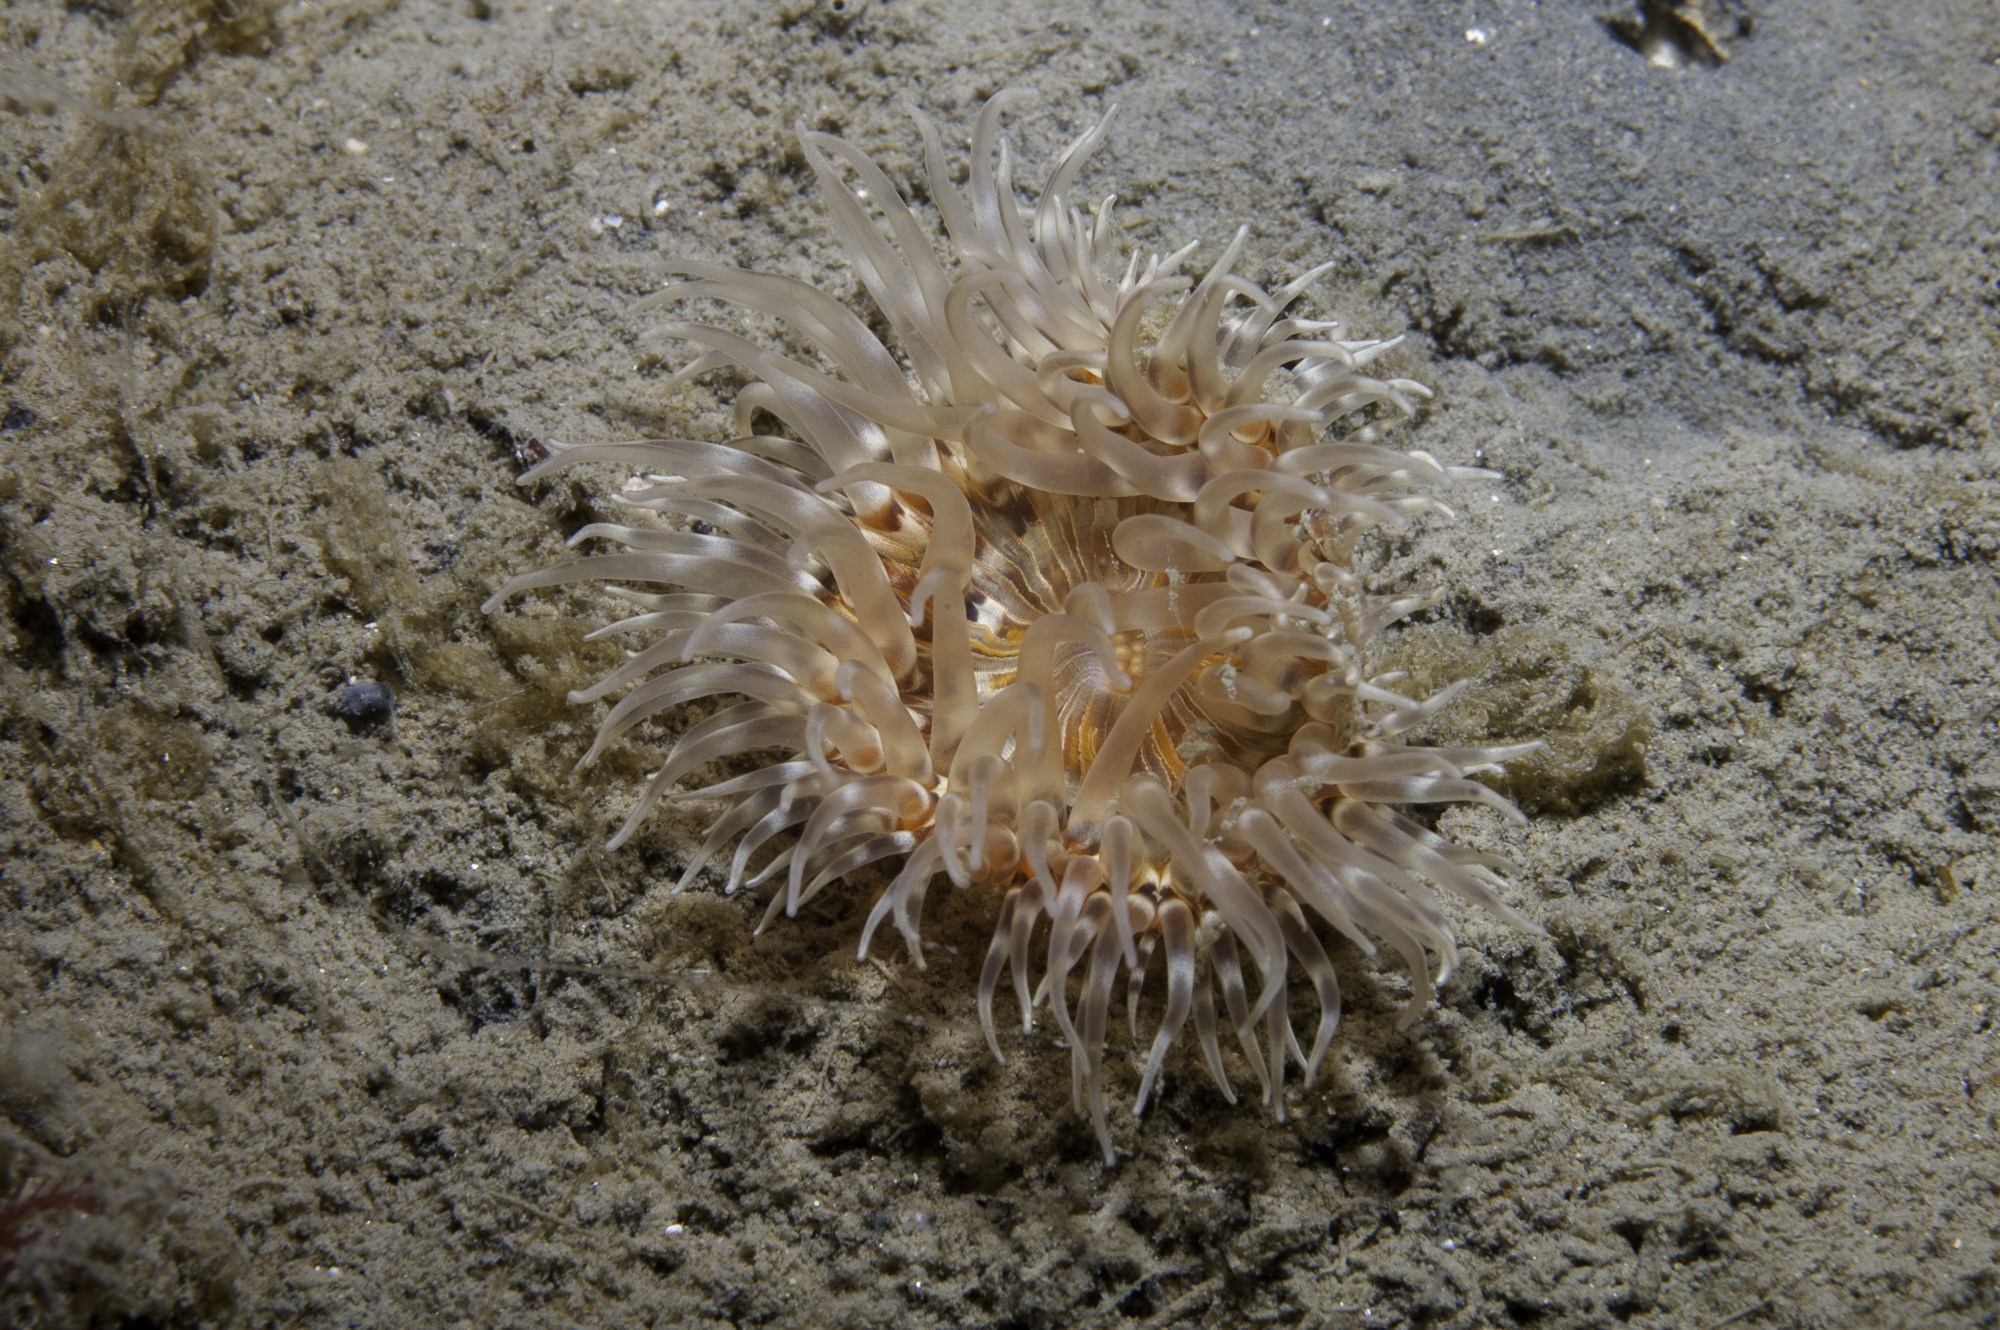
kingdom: Animalia
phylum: Cnidaria
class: Anthozoa
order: Actiniaria
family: Sagartiidae
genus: Sagartia
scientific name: Sagartia lacerata
